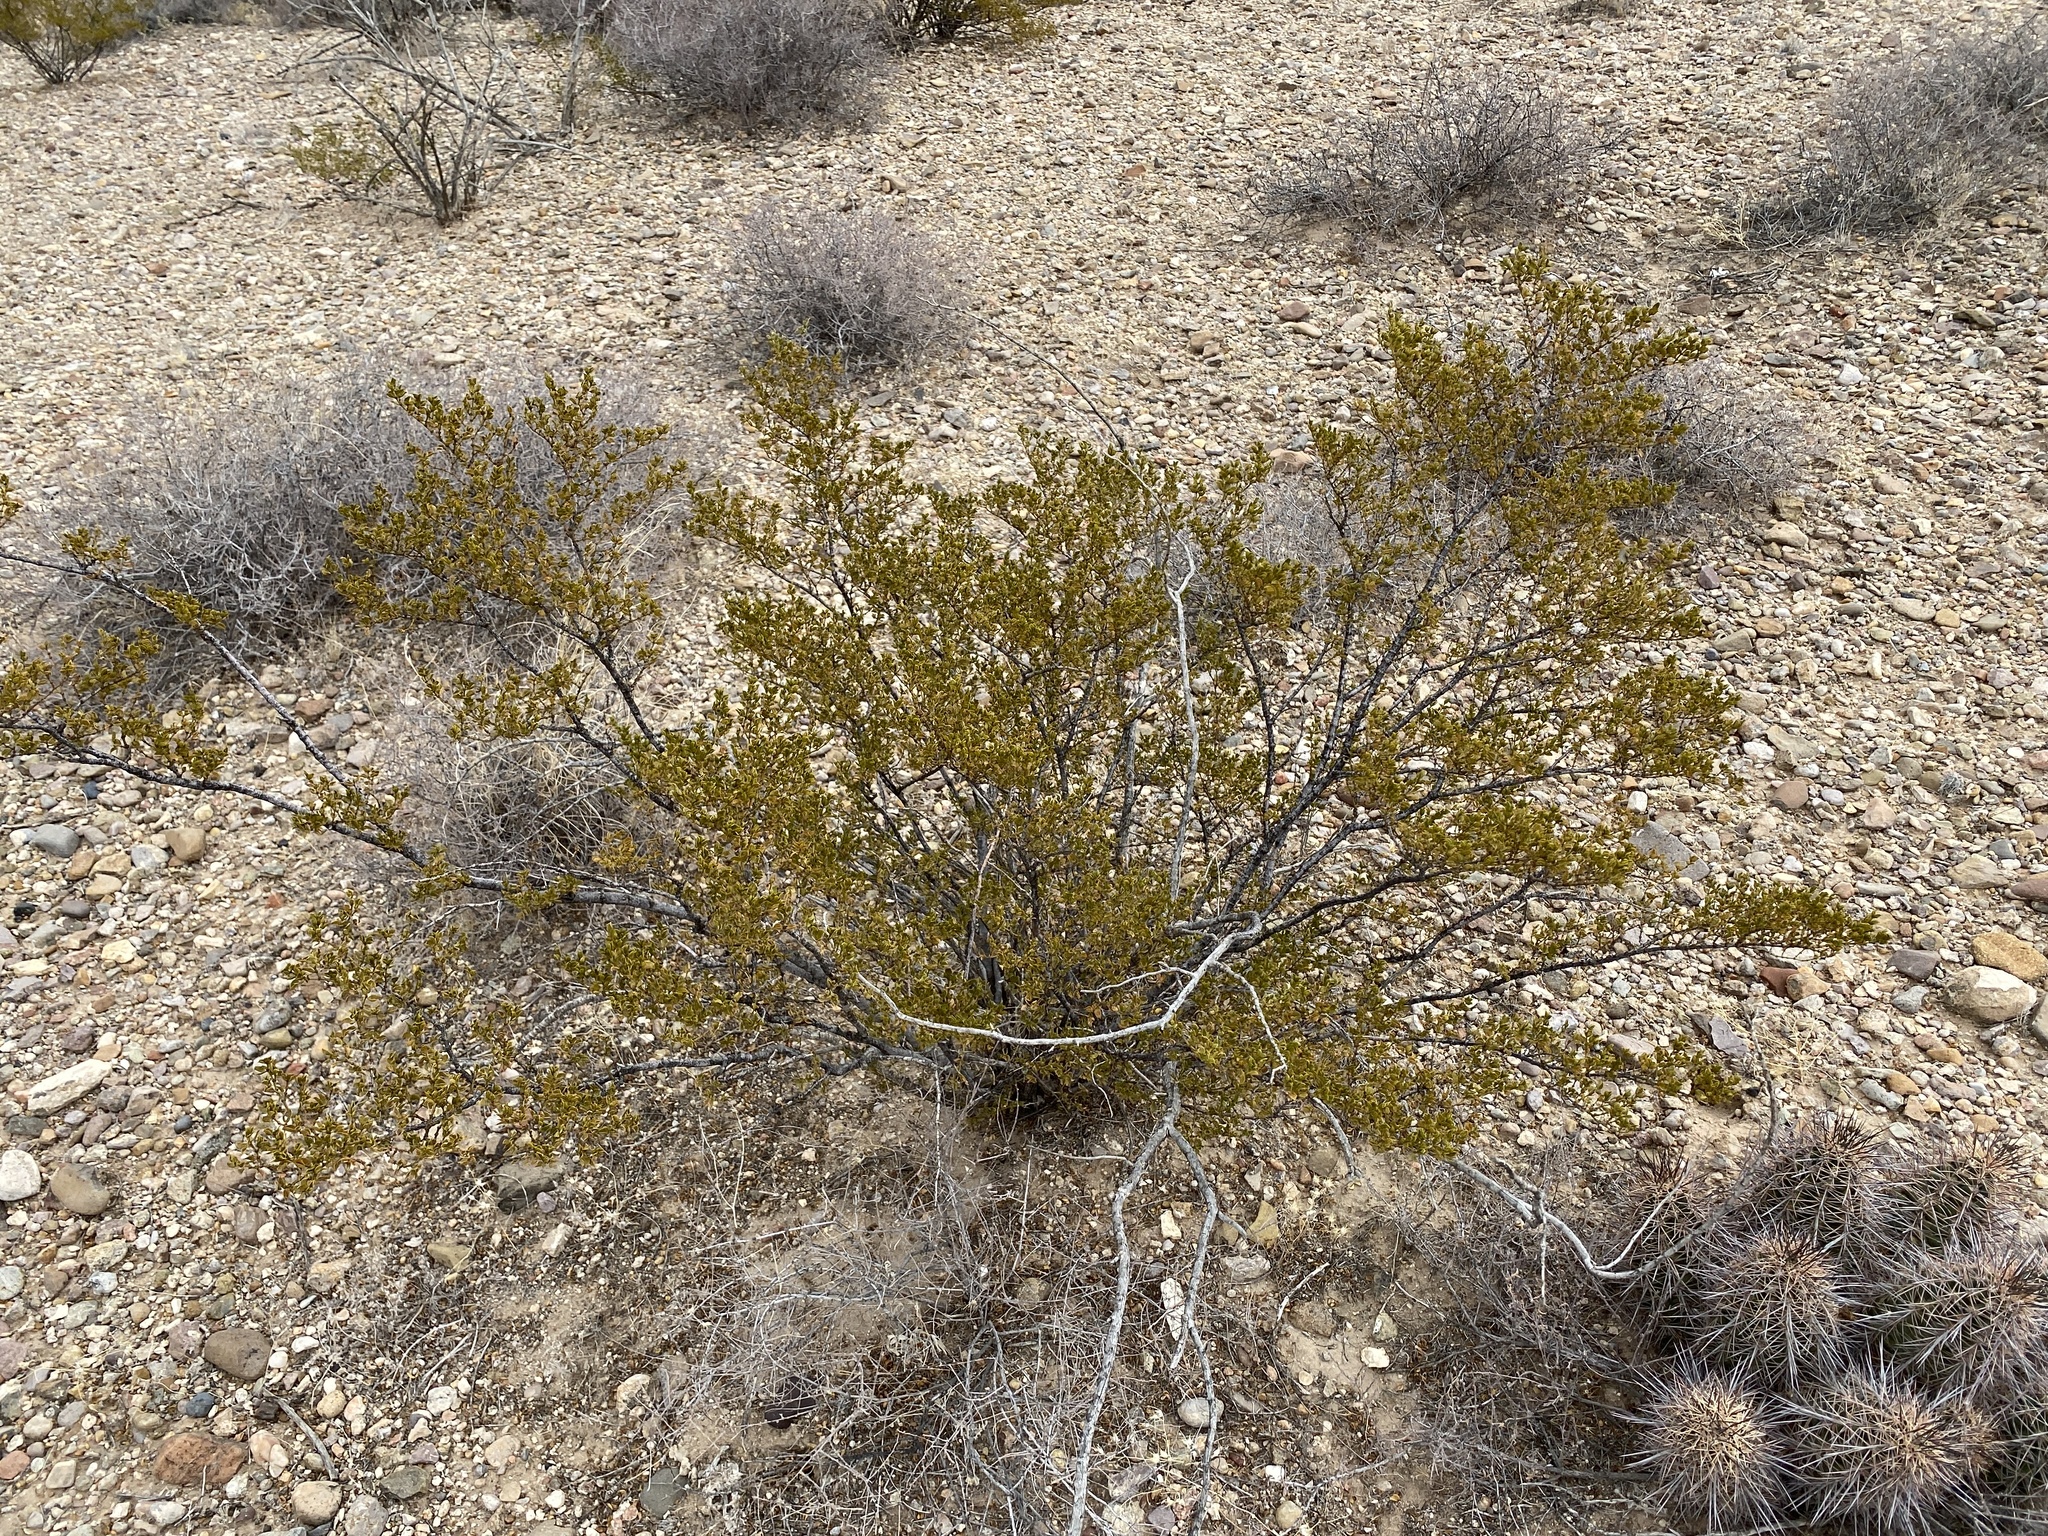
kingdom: Plantae
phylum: Tracheophyta
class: Magnoliopsida
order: Zygophyllales
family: Zygophyllaceae
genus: Larrea
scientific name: Larrea tridentata
